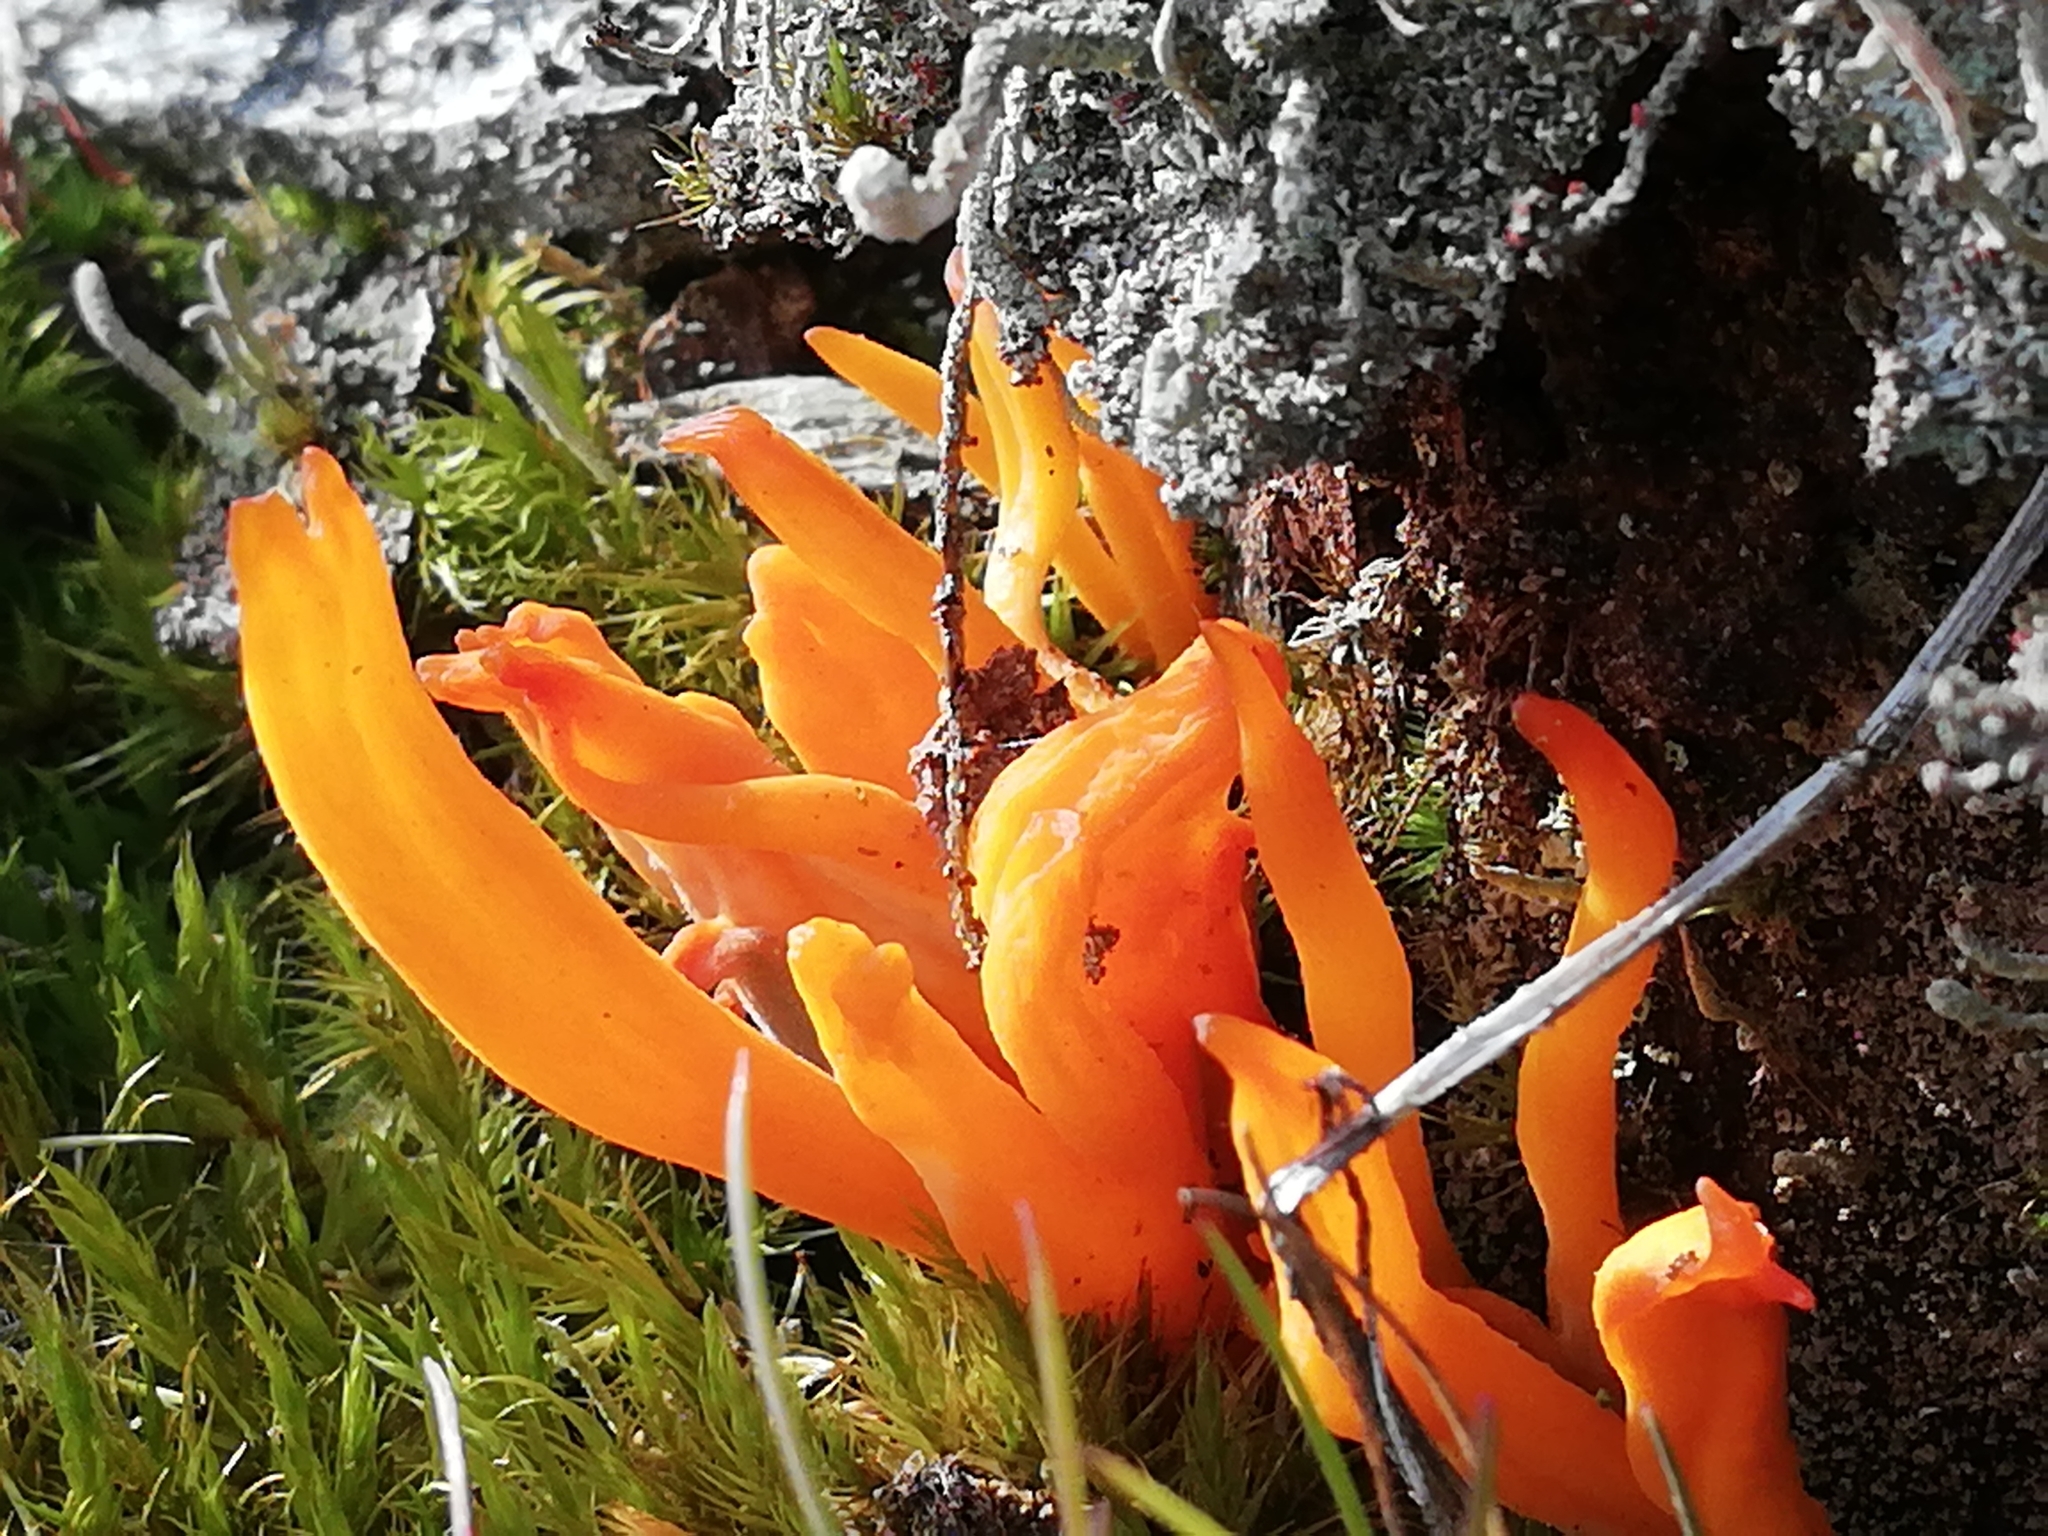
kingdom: Fungi
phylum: Basidiomycota
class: Dacrymycetes
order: Dacrymycetales
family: Dacrymycetaceae
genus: Calocera
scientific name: Calocera viscosa
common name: Yellow stagshorn
